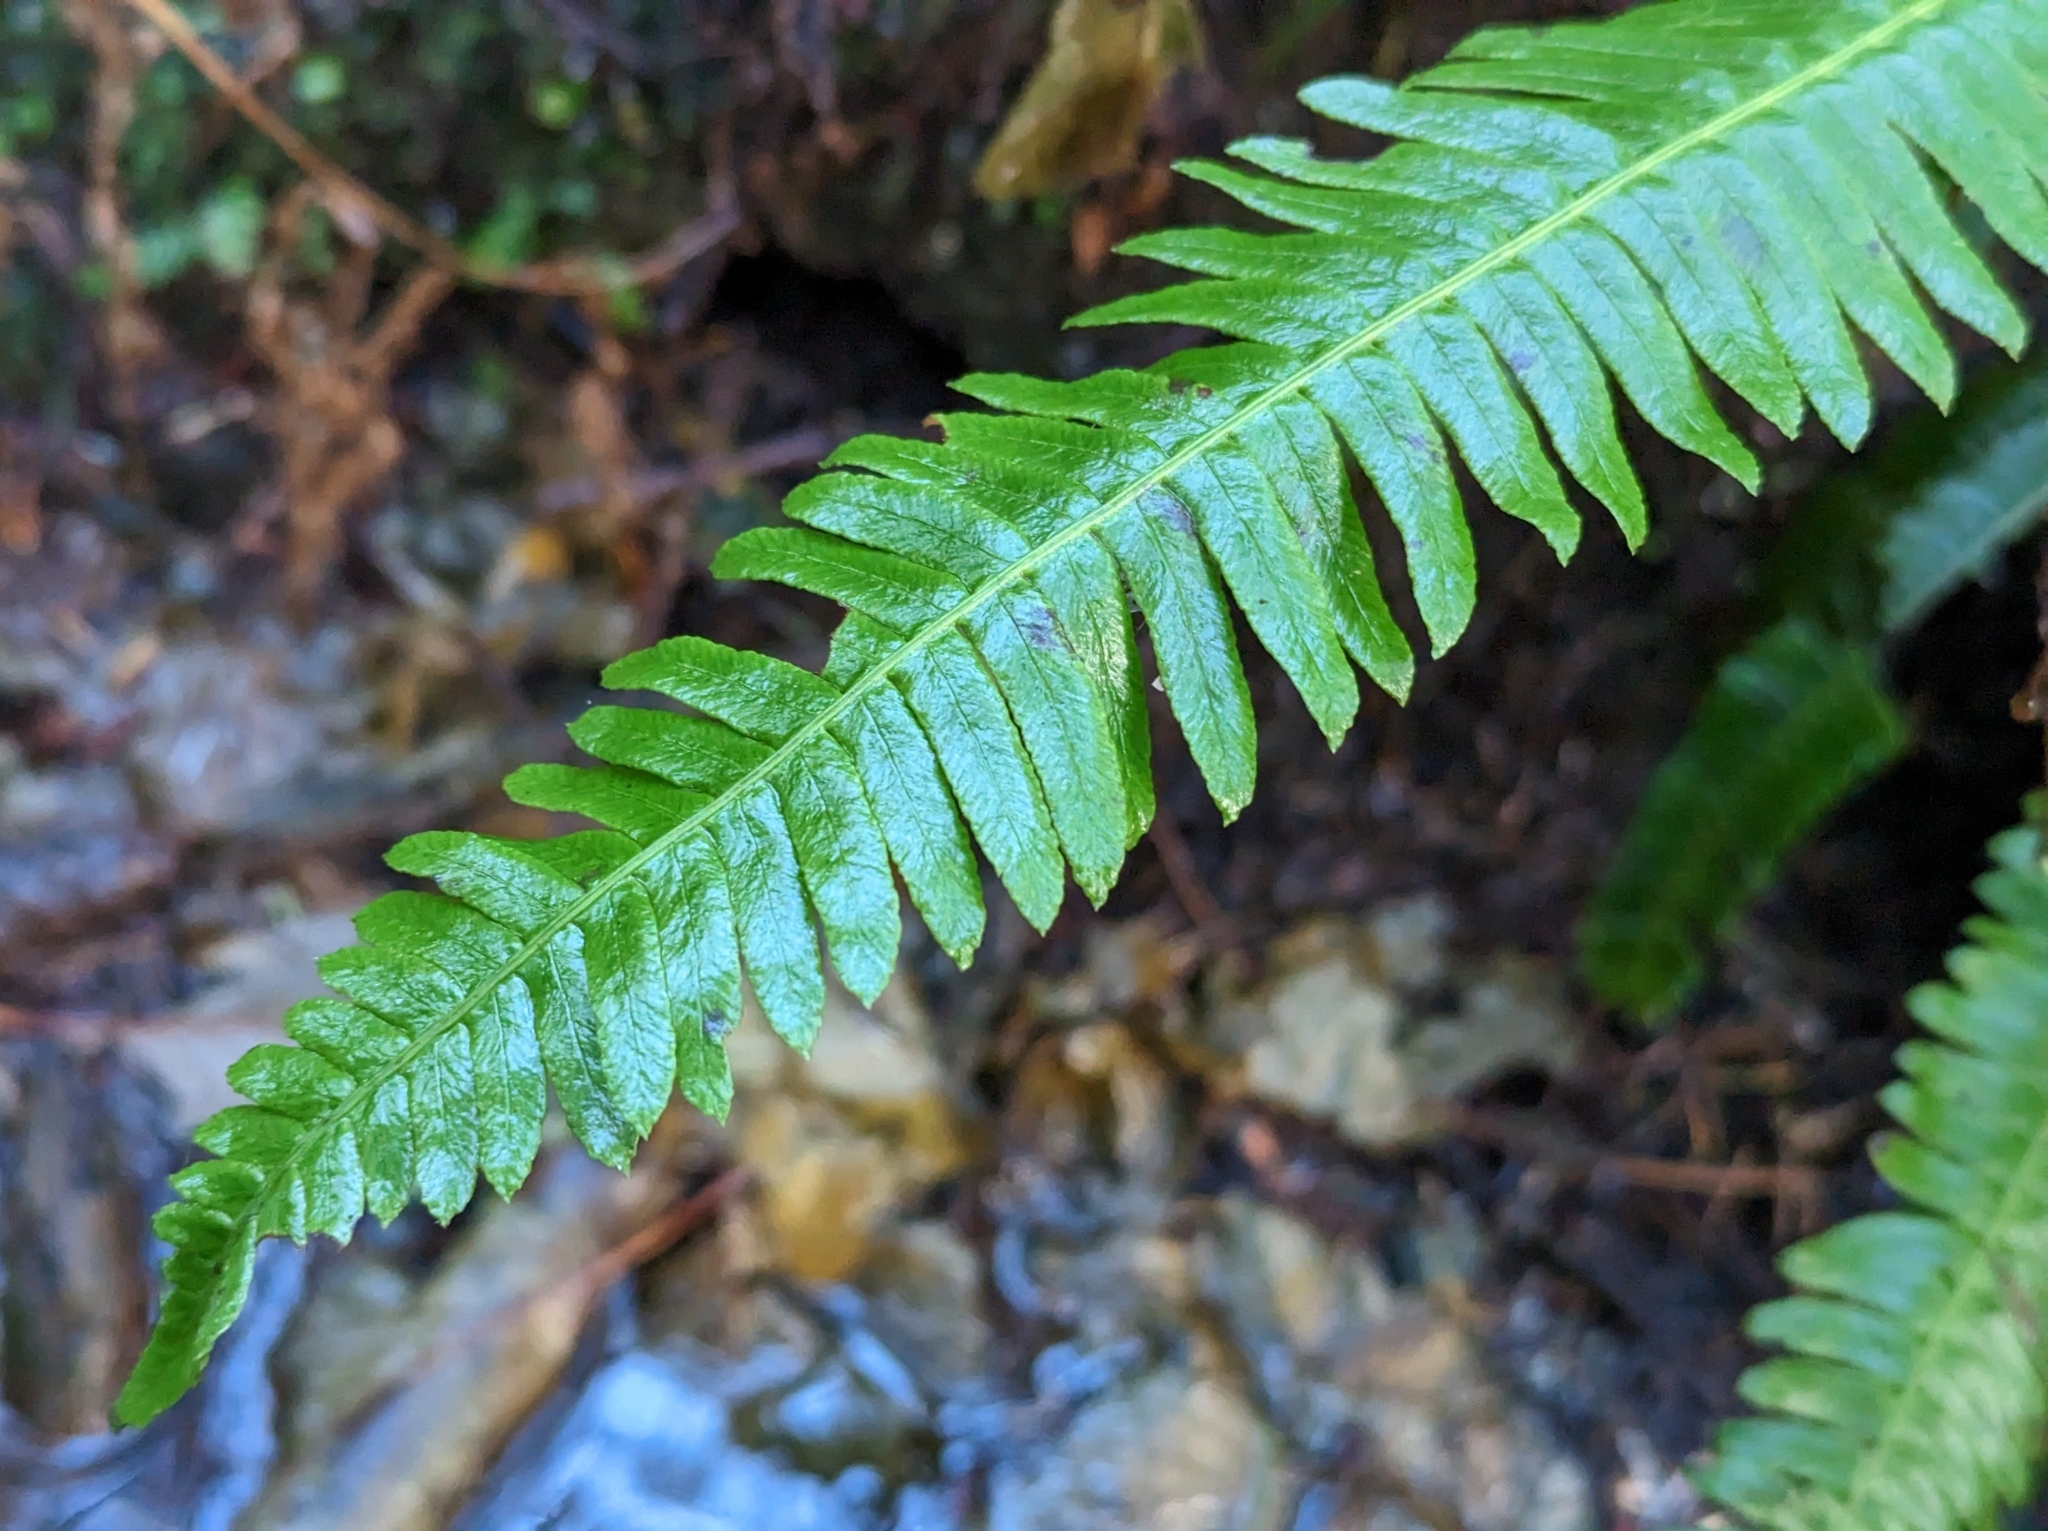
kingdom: Plantae
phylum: Tracheophyta
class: Polypodiopsida
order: Polypodiales
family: Blechnaceae
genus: Struthiopteris
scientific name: Struthiopteris spicant
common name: Deer fern
